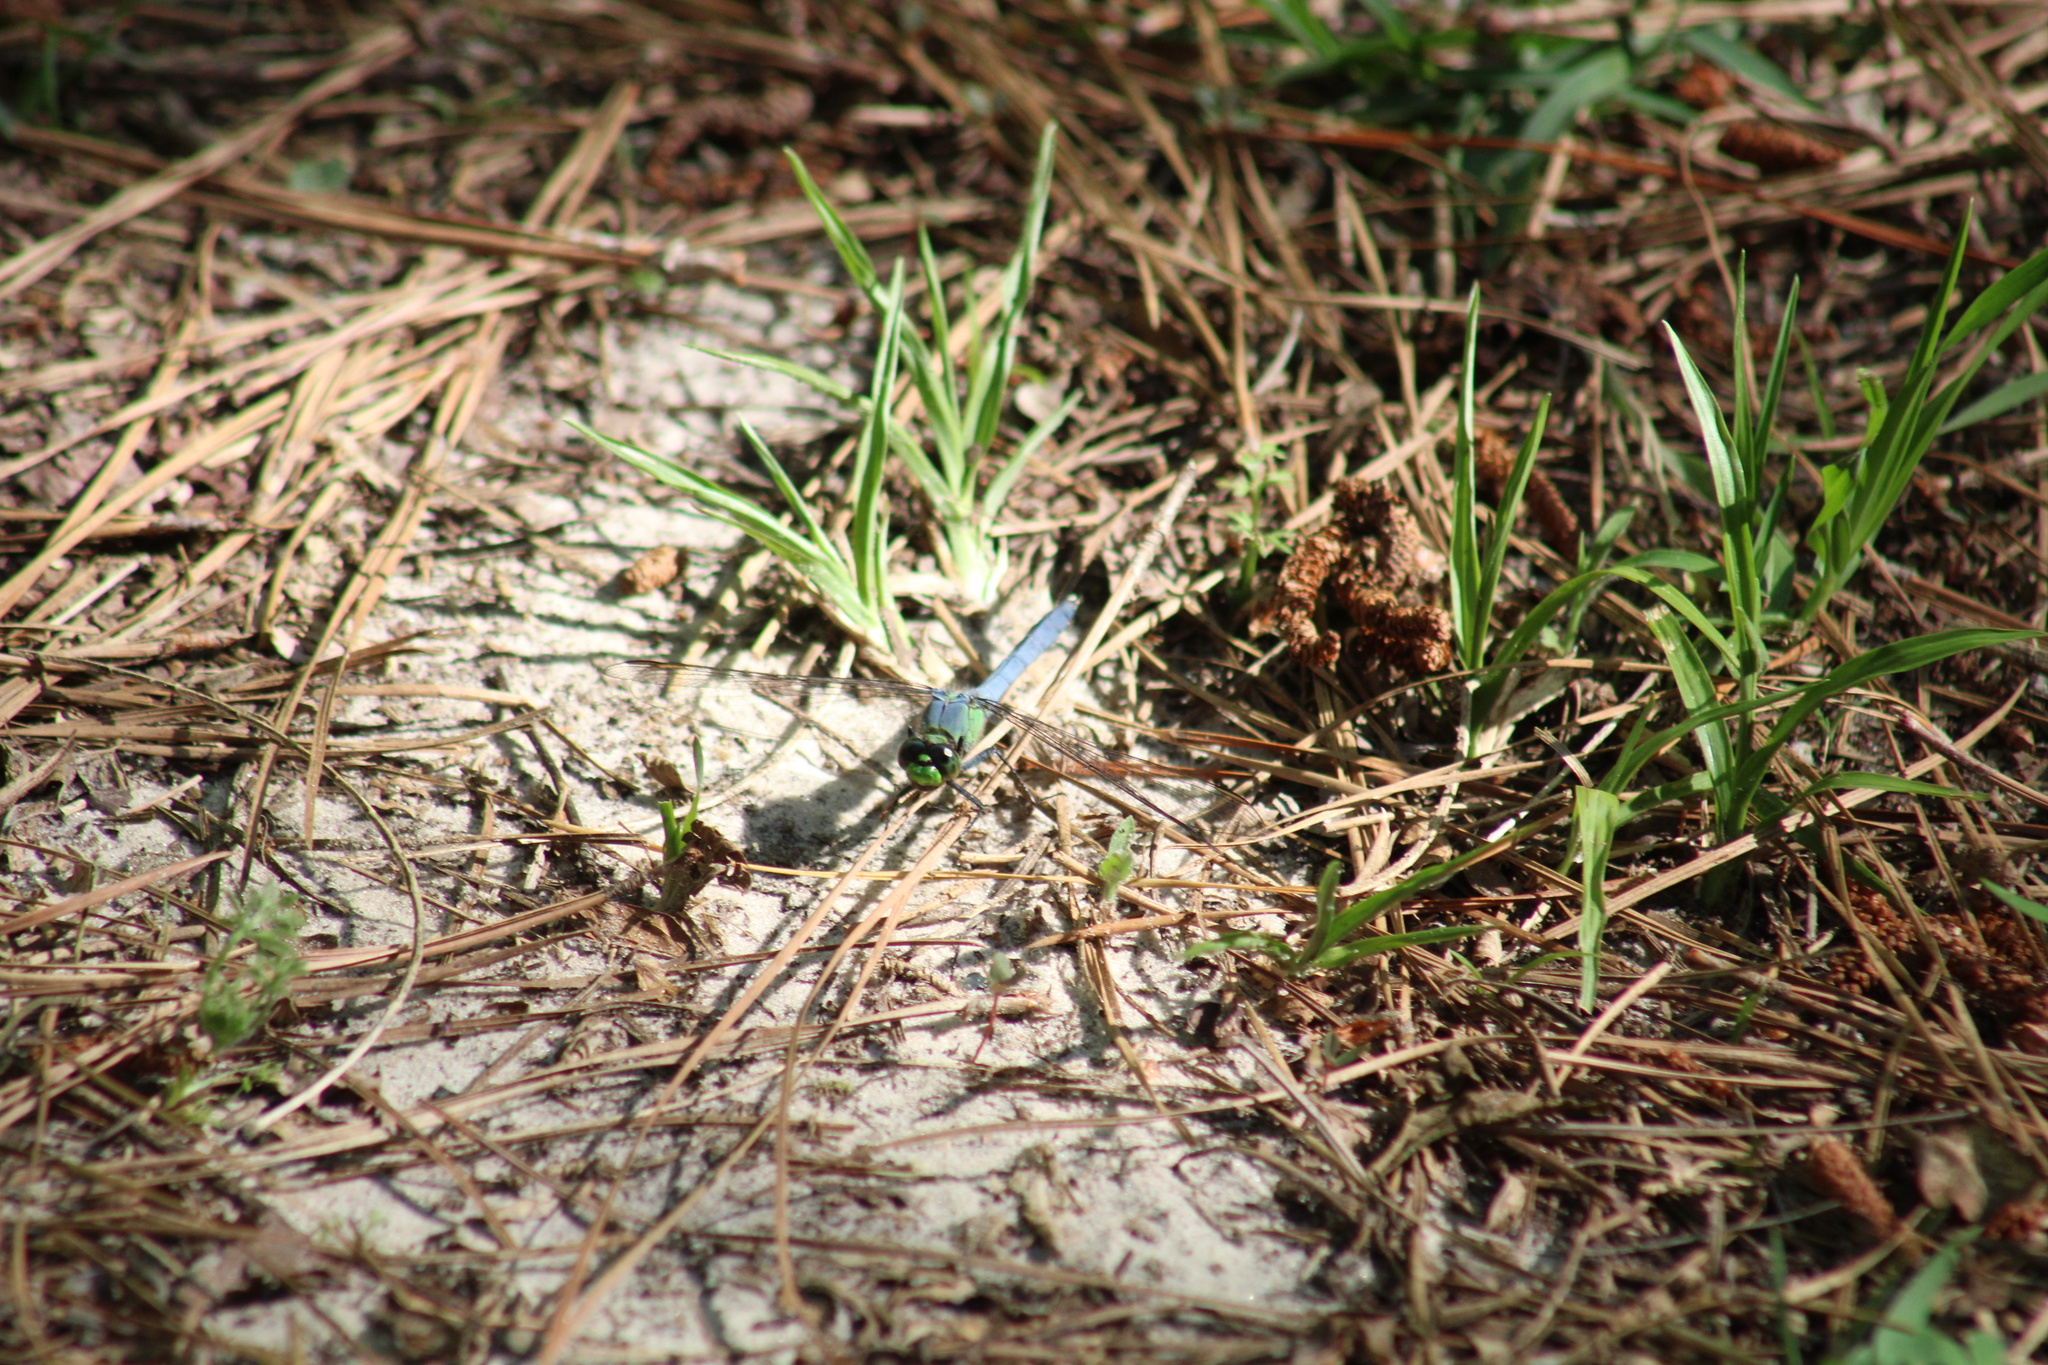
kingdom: Animalia
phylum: Arthropoda
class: Insecta
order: Odonata
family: Libellulidae
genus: Erythemis
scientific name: Erythemis simplicicollis
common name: Eastern pondhawk
